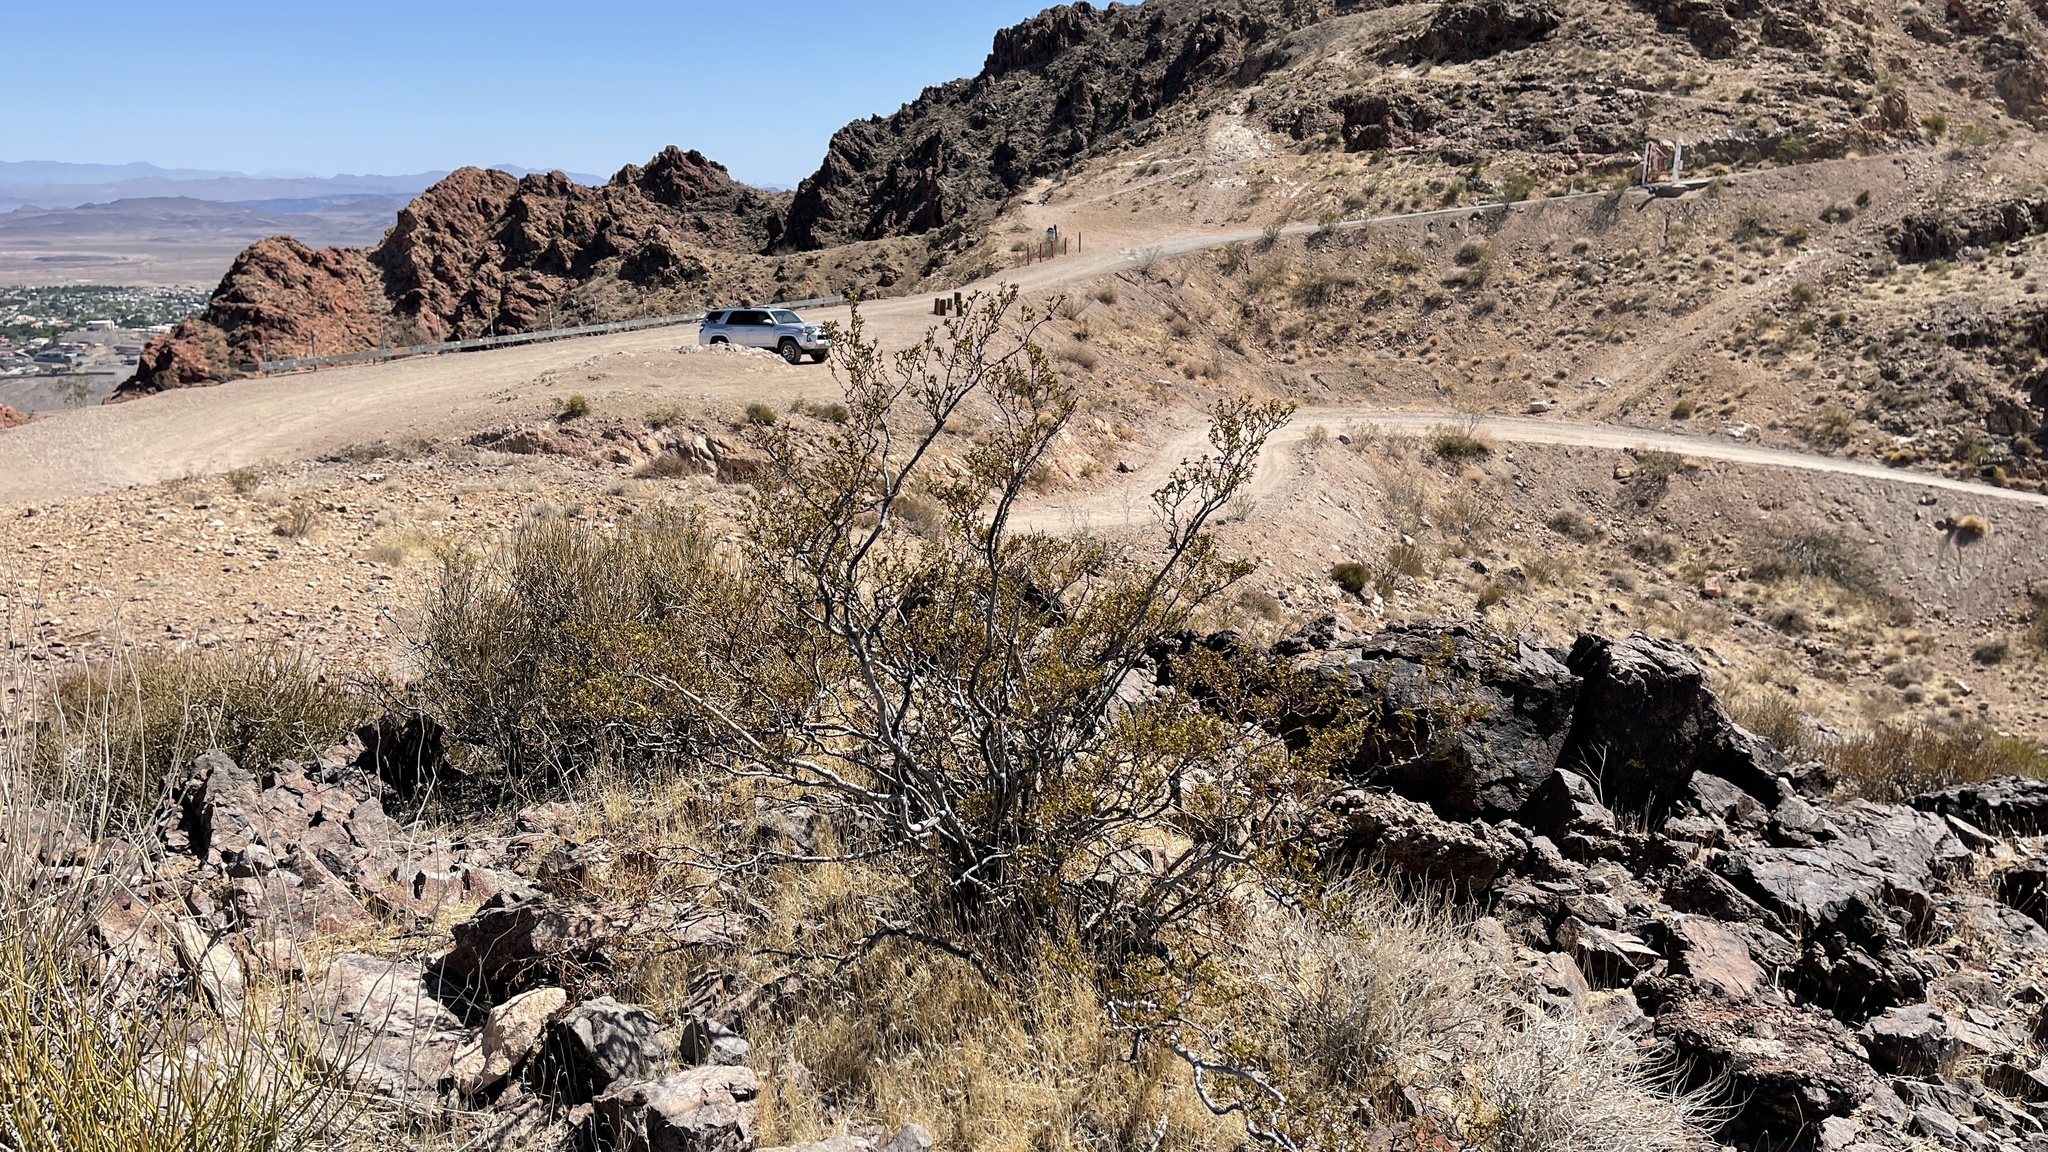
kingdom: Plantae
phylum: Tracheophyta
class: Magnoliopsida
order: Zygophyllales
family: Zygophyllaceae
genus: Larrea
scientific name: Larrea tridentata
